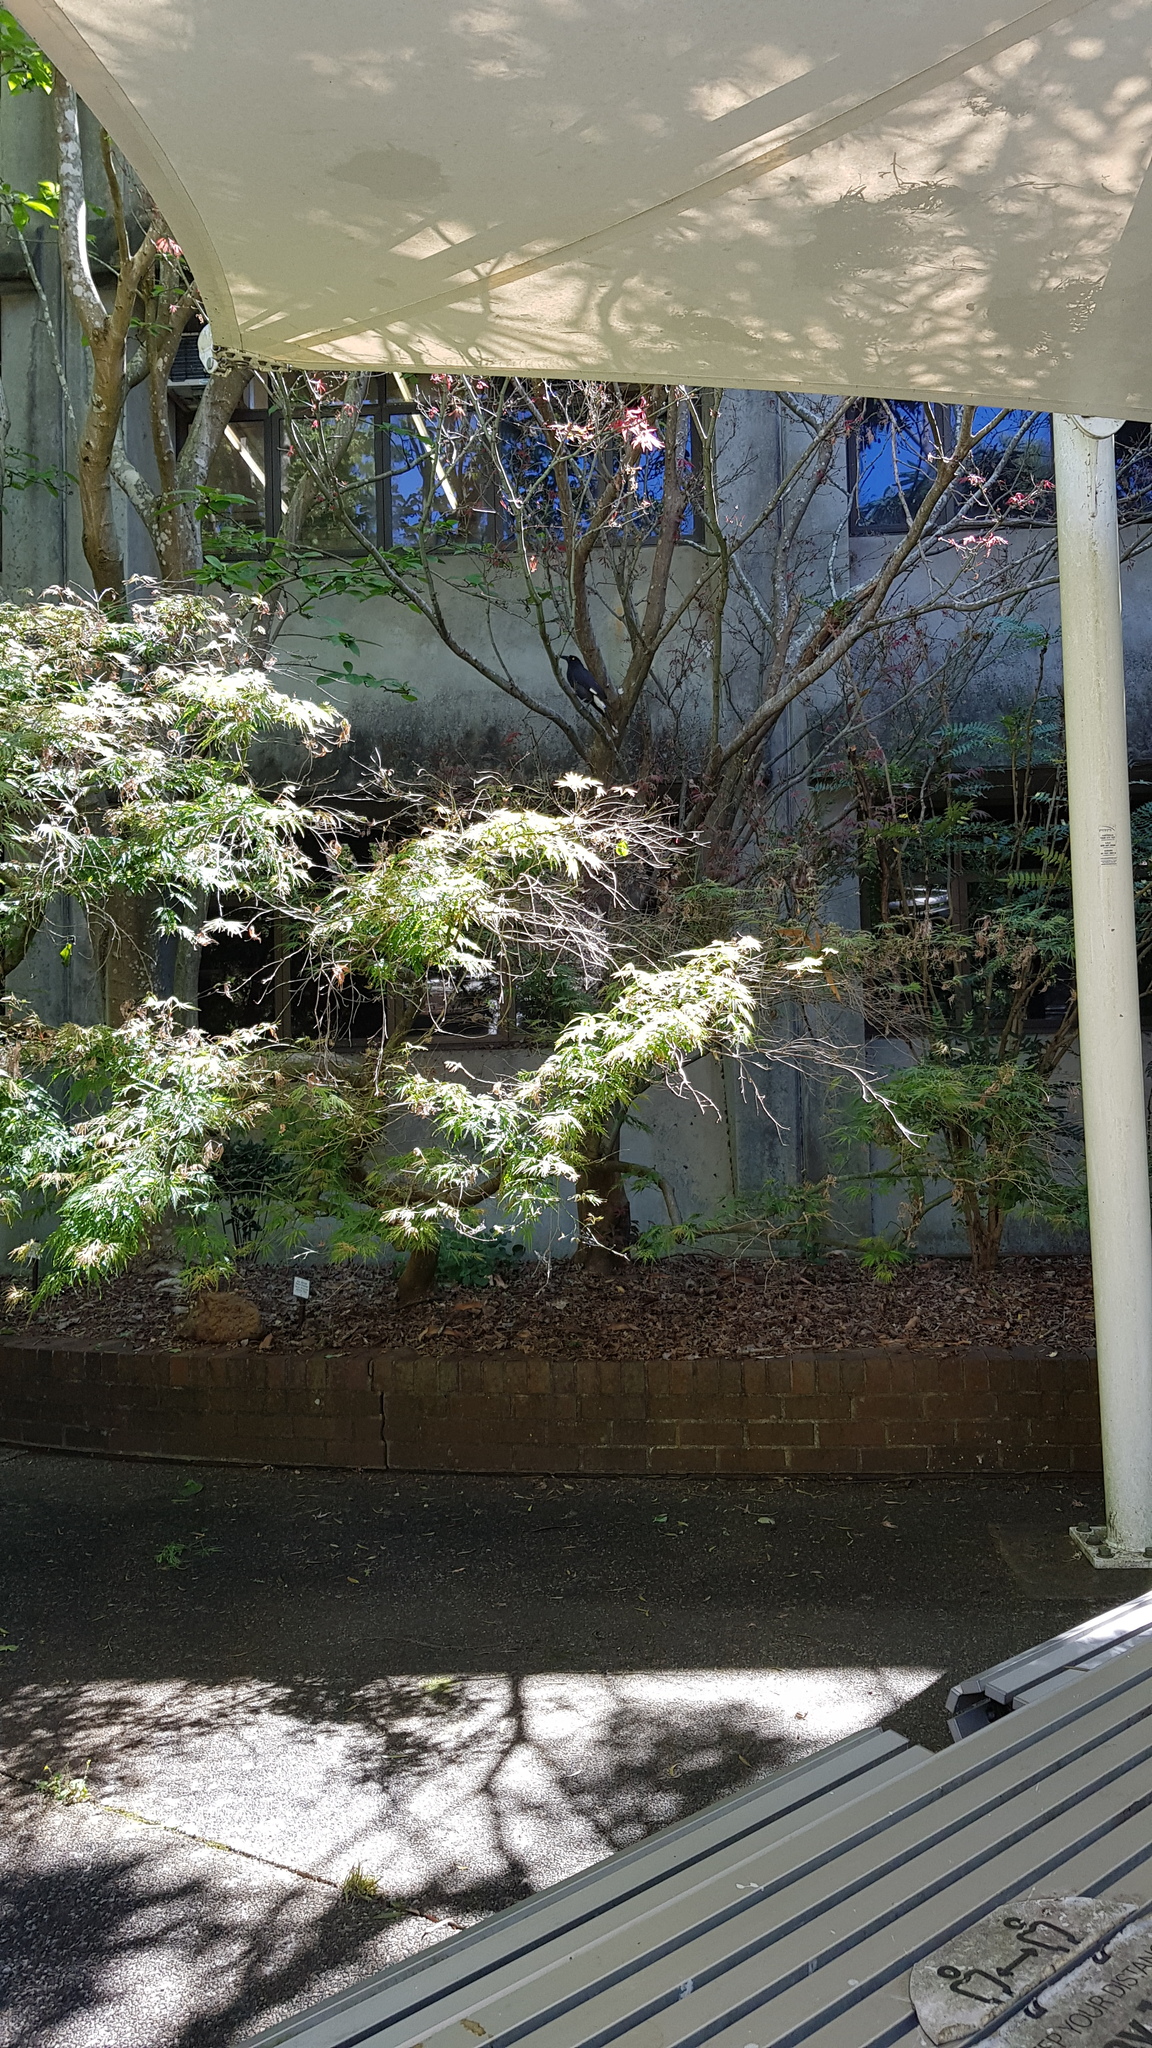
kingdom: Animalia
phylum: Chordata
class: Aves
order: Passeriformes
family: Cracticidae
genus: Strepera
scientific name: Strepera graculina
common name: Pied currawong
